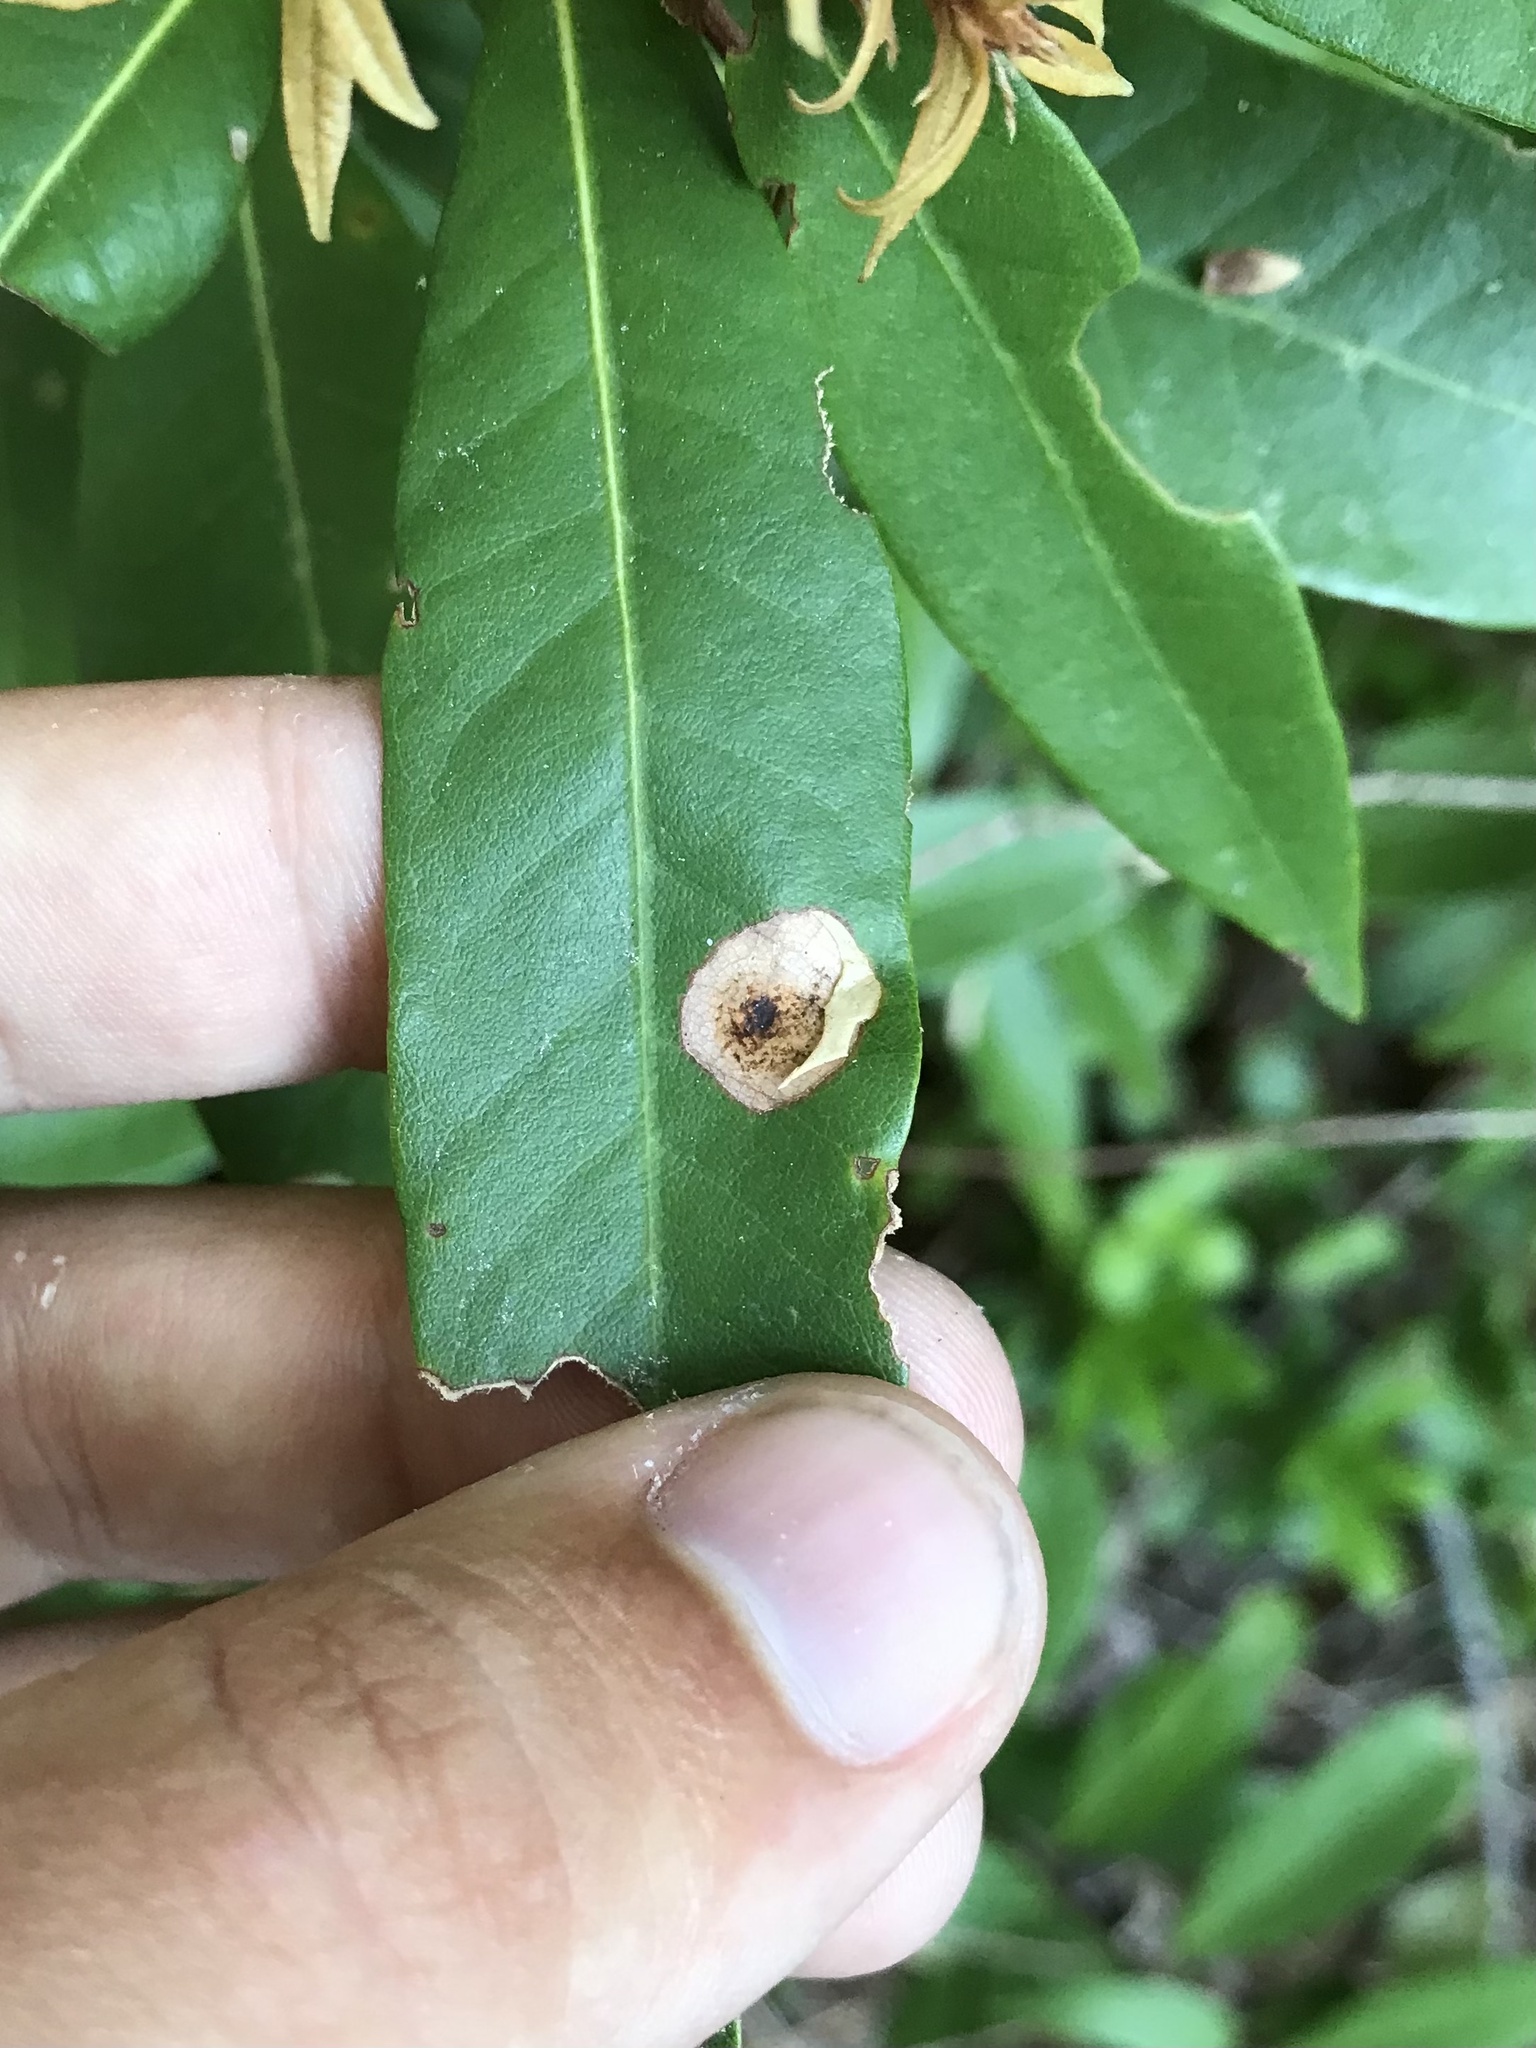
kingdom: Animalia
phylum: Arthropoda
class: Insecta
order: Lepidoptera
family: Gracillariidae
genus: Cameraria
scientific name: Cameraria tildeni
